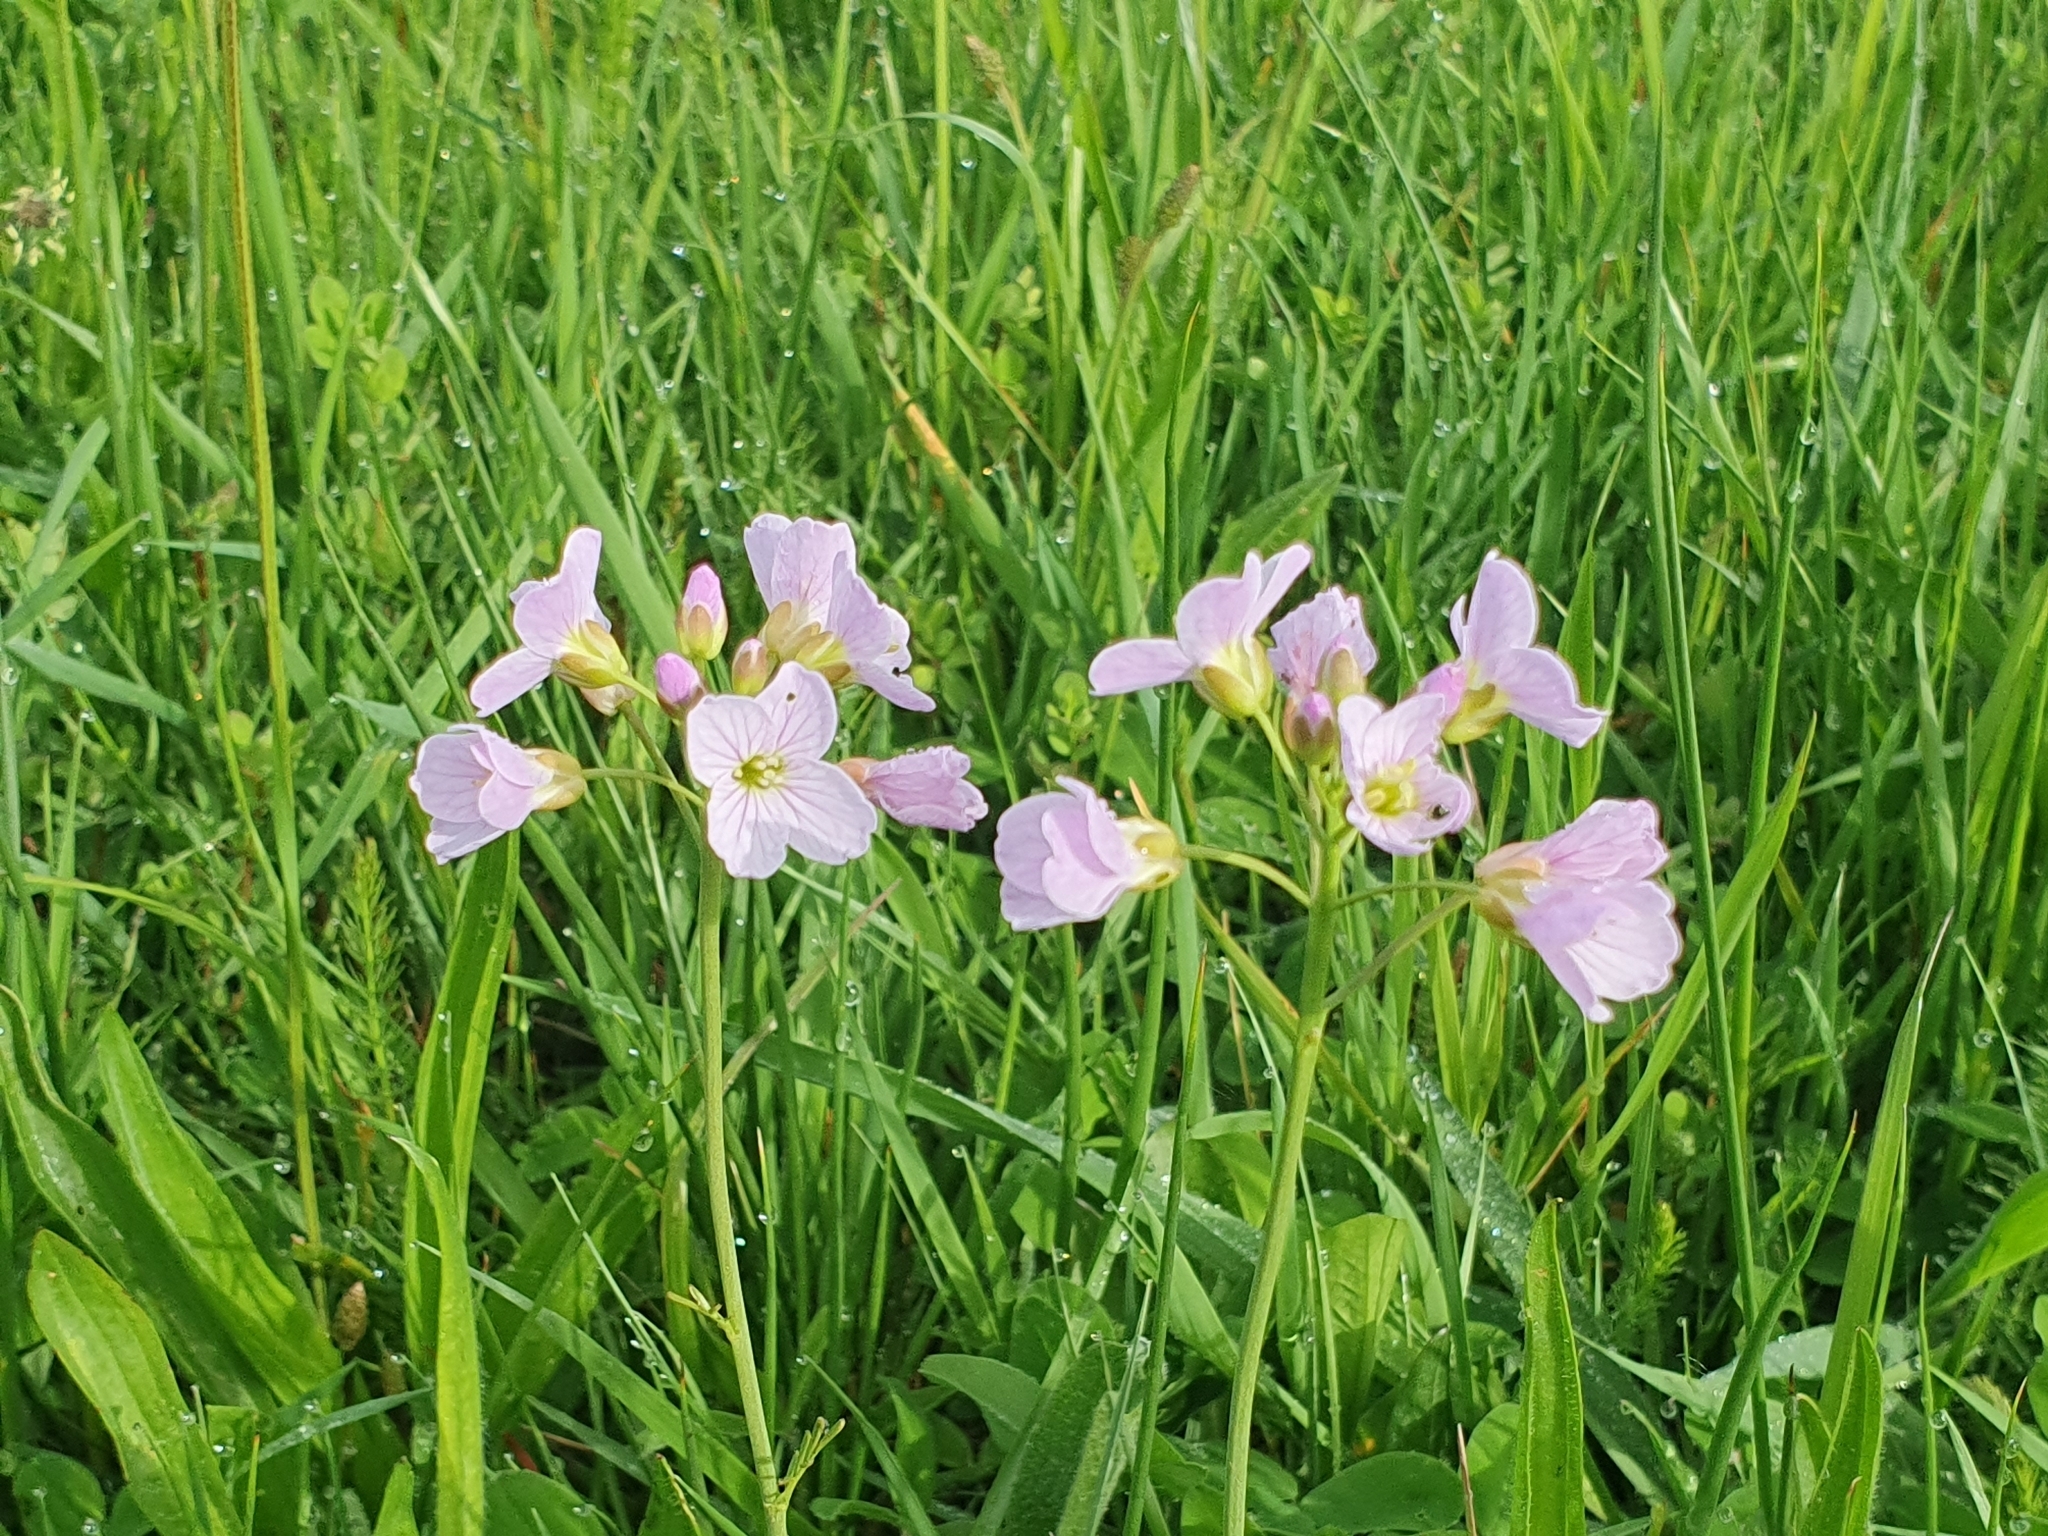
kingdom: Plantae
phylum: Tracheophyta
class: Magnoliopsida
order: Brassicales
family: Brassicaceae
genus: Cardamine
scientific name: Cardamine pratensis
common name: Cuckoo flower
